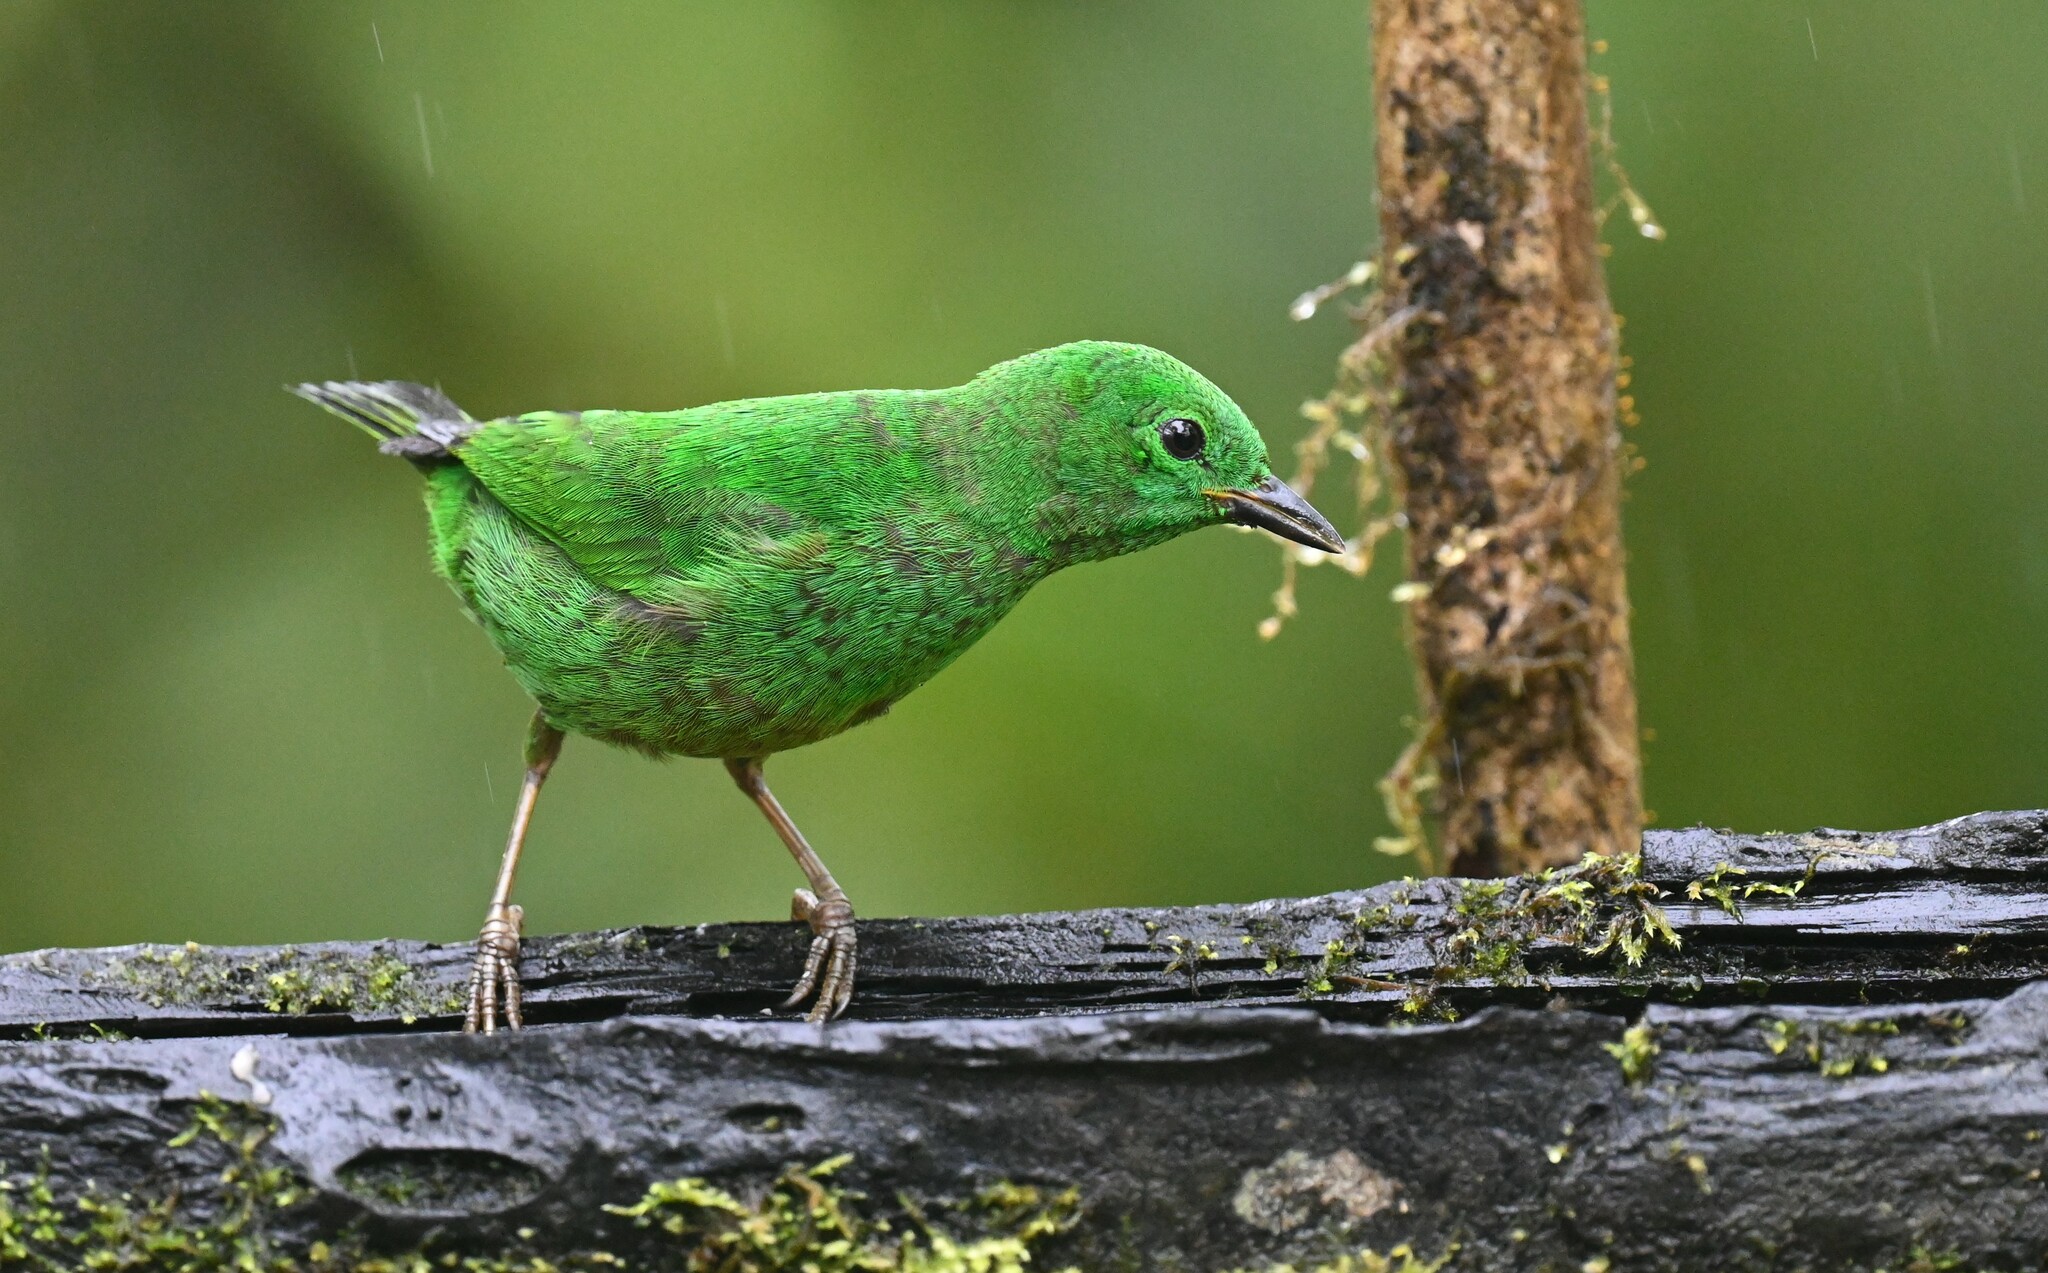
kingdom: Animalia
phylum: Chordata
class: Aves
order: Passeriformes
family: Thraupidae
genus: Chlorochrysa
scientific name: Chlorochrysa phoenicotis
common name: Glistening-green tanager
